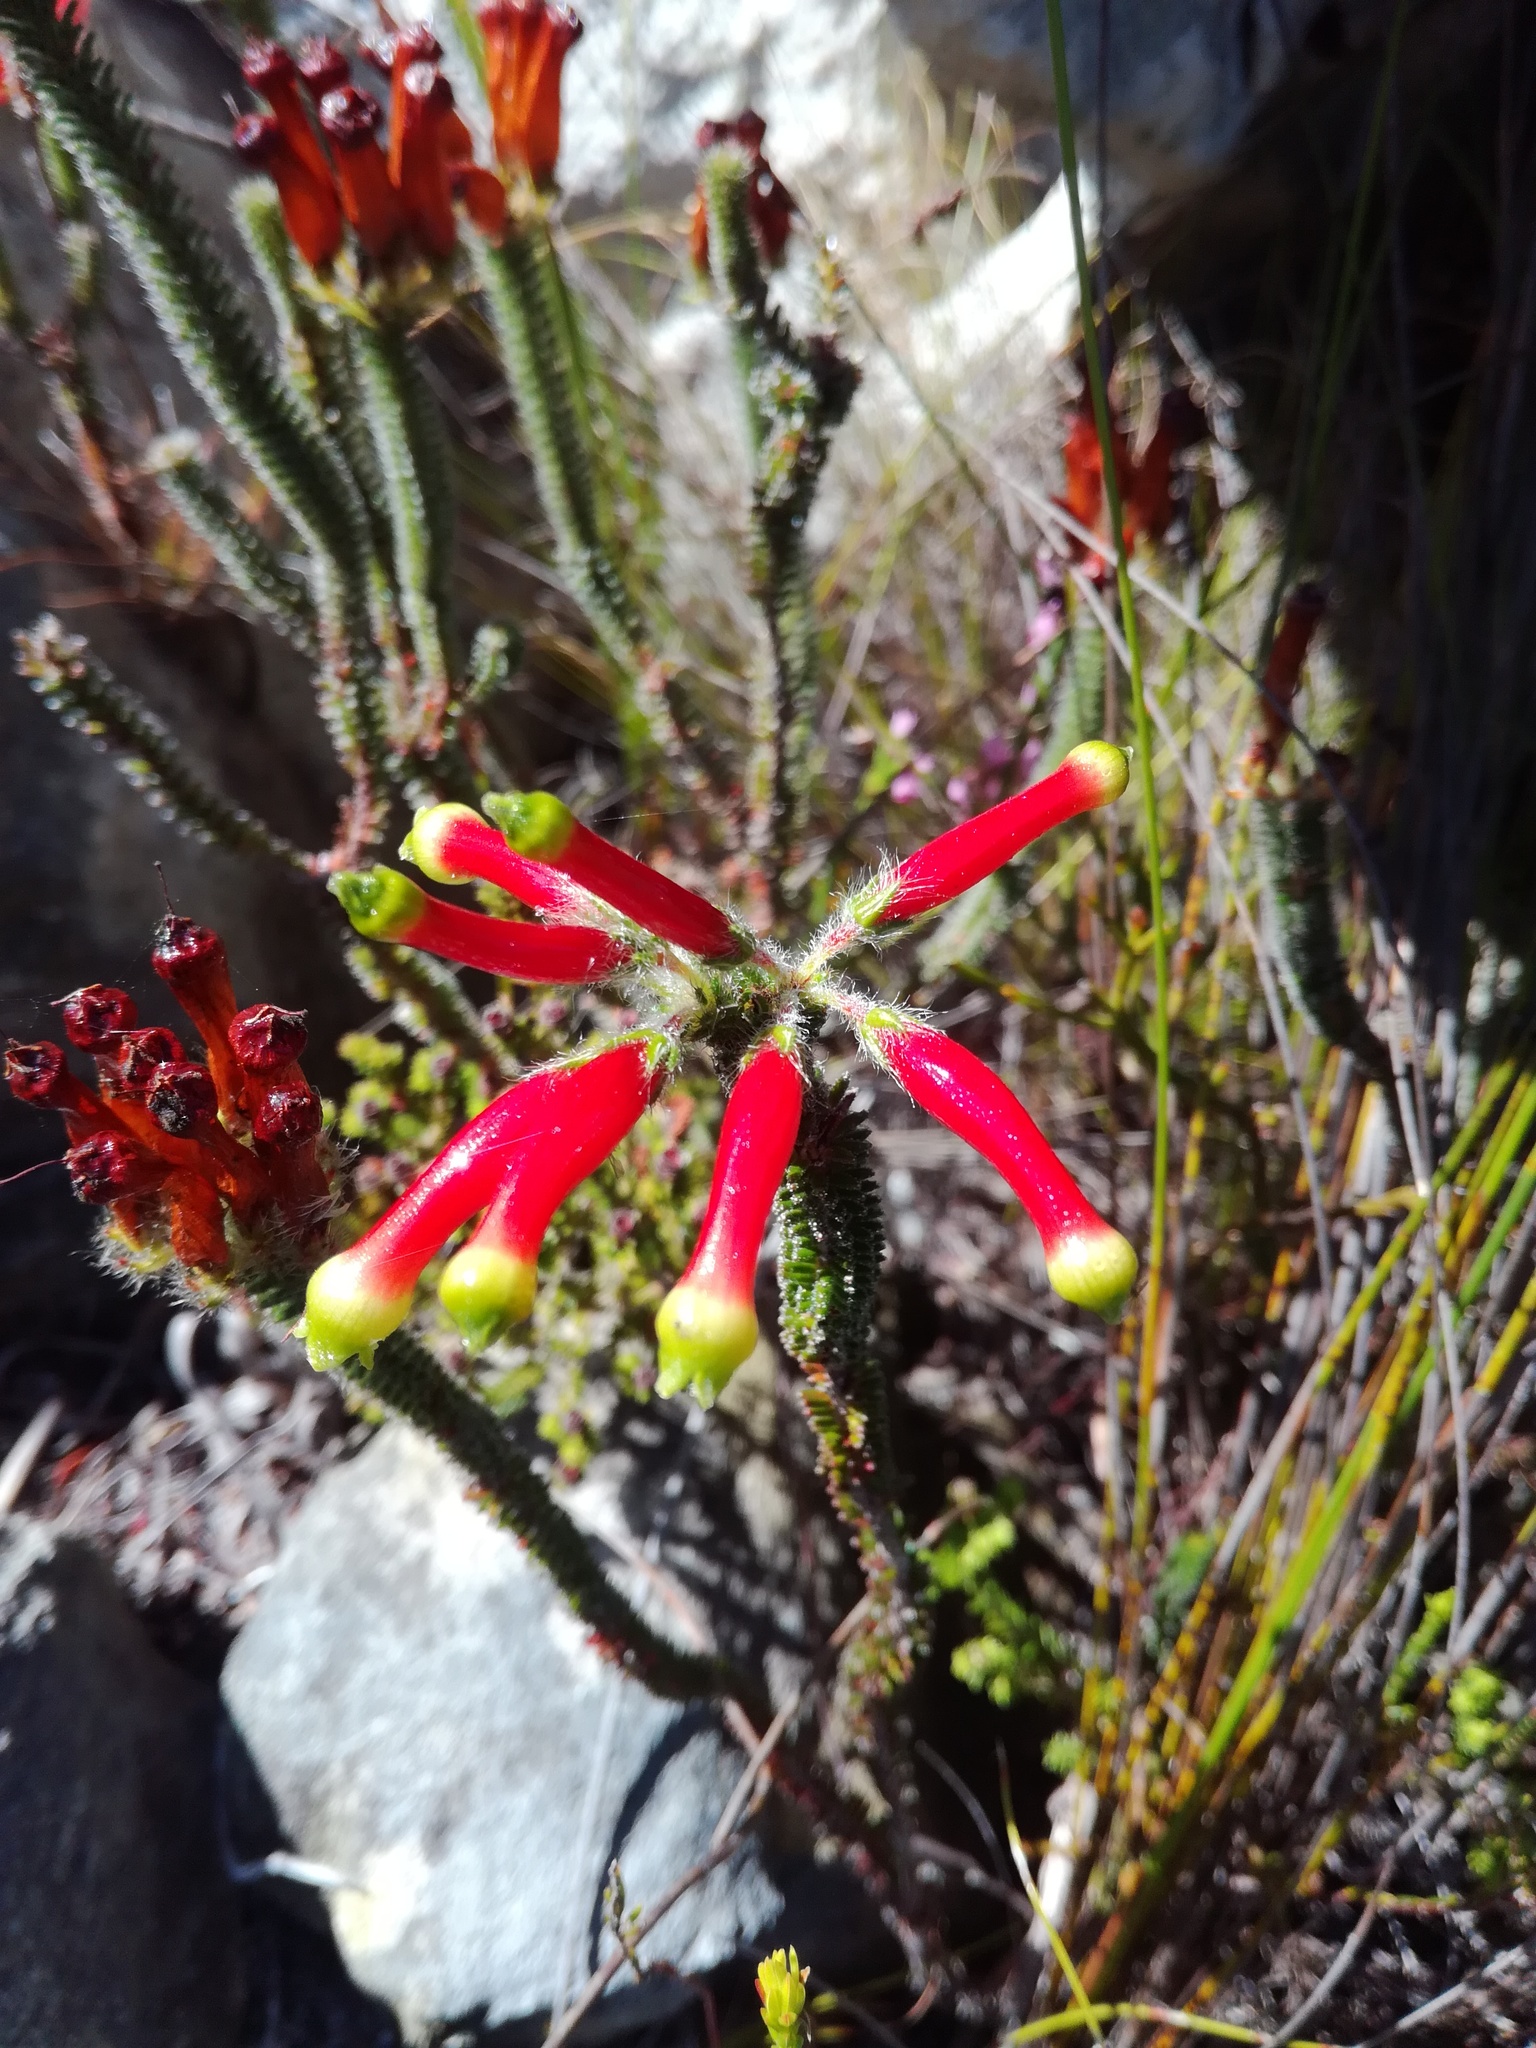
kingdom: Plantae
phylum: Tracheophyta
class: Magnoliopsida
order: Ericales
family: Ericaceae
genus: Erica
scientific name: Erica massonii
